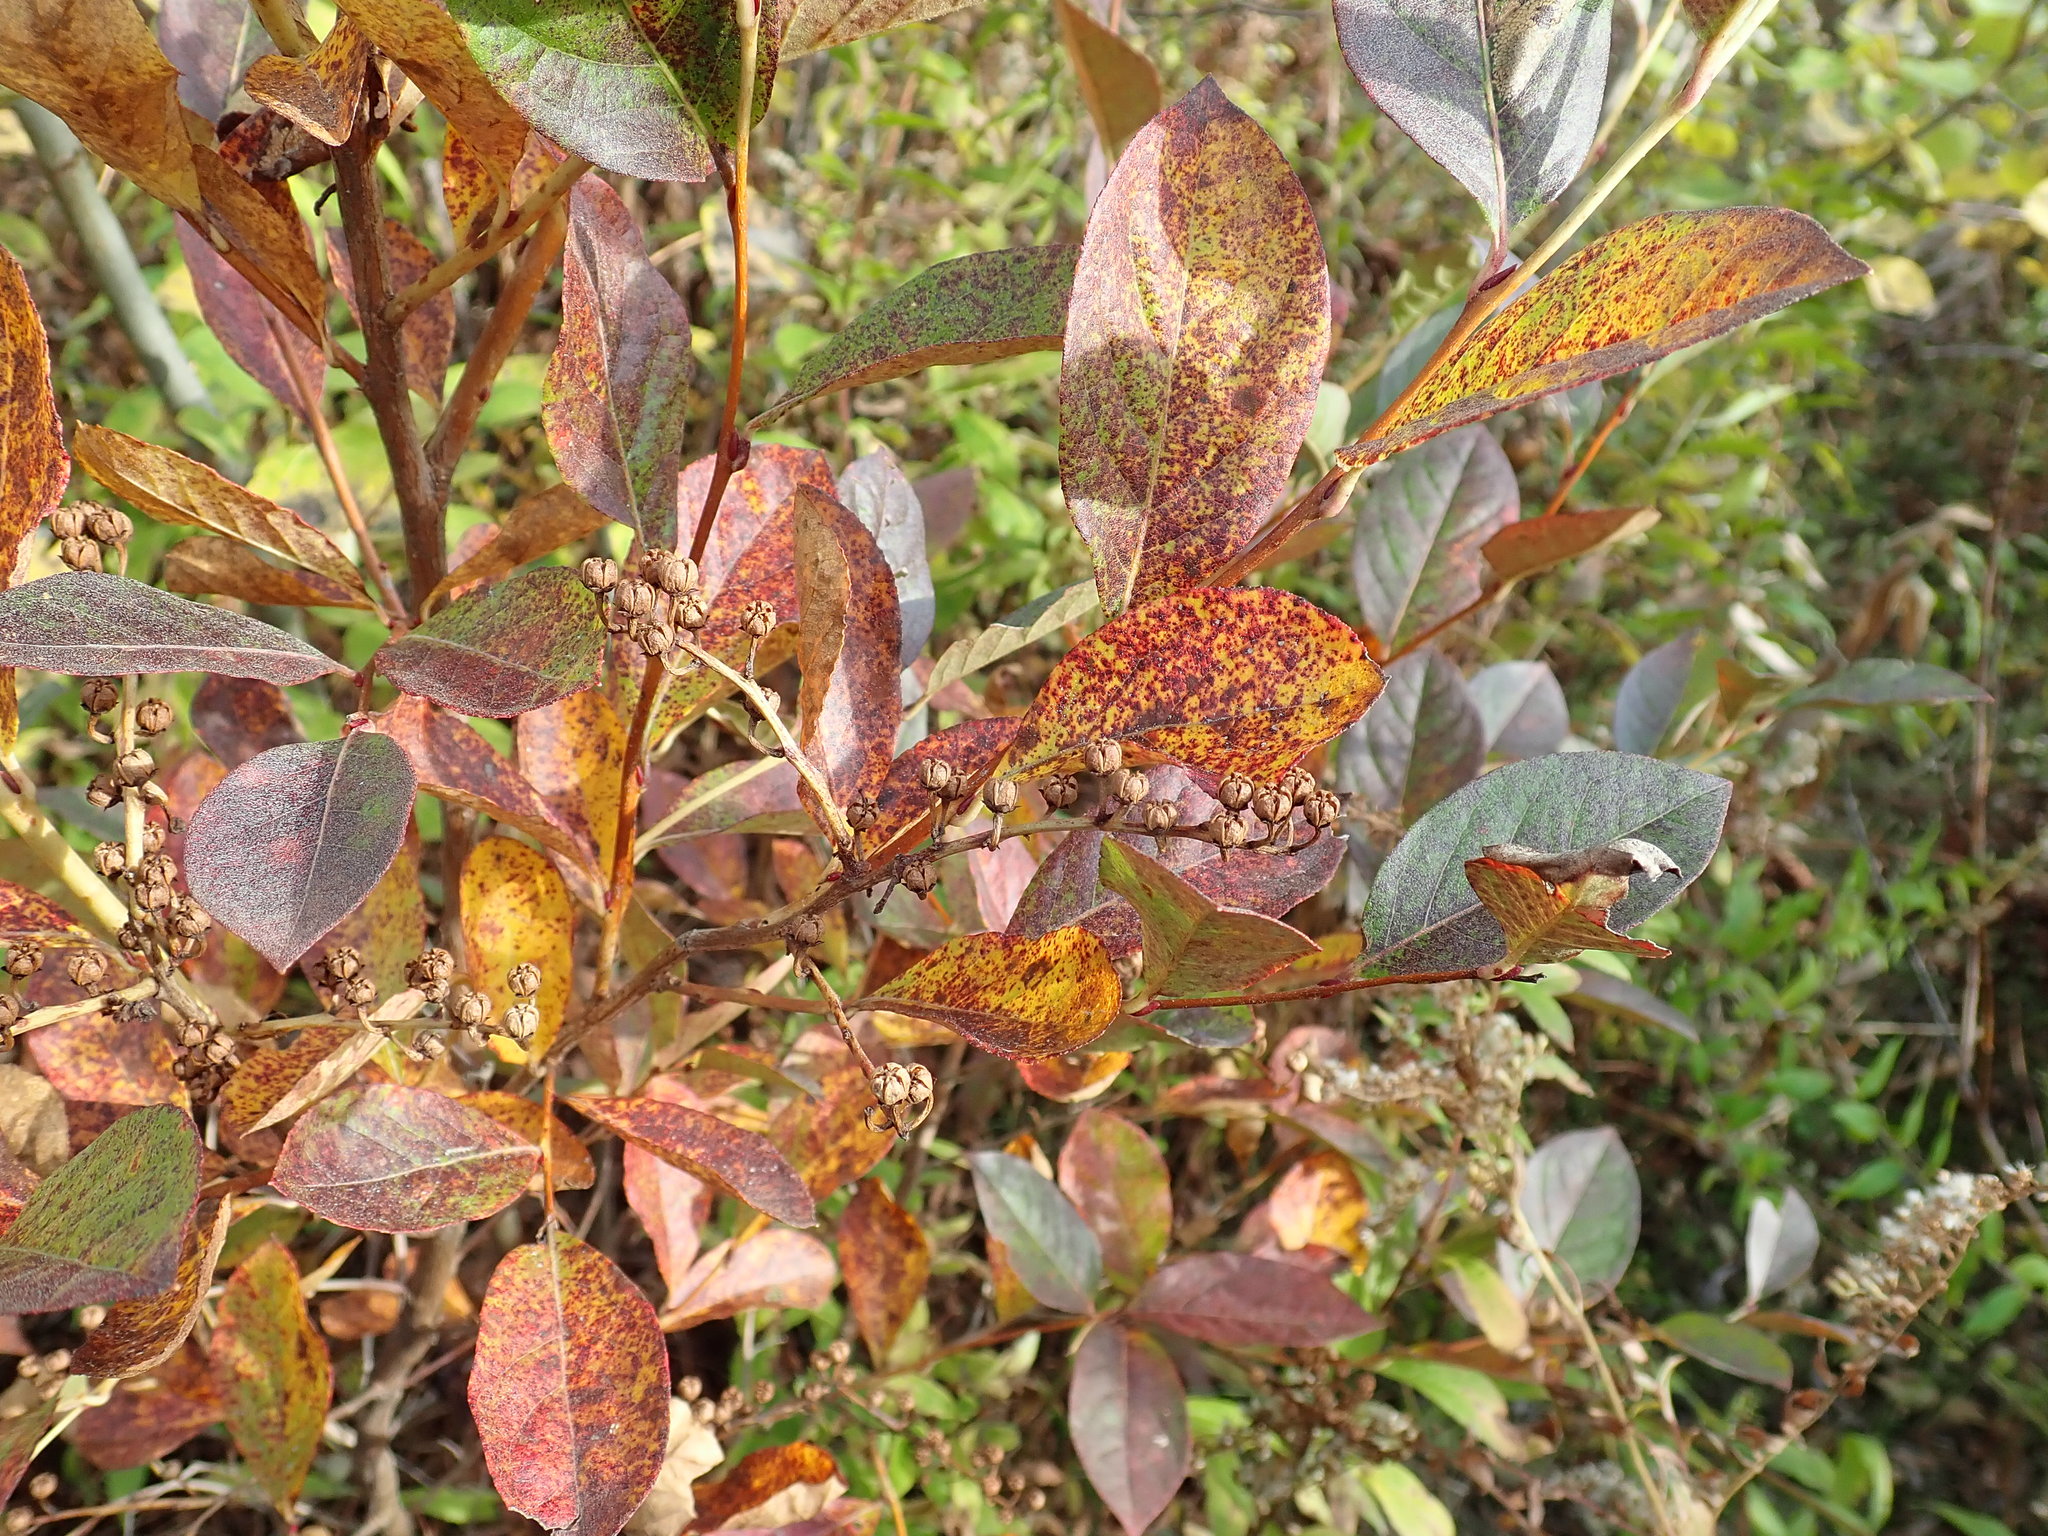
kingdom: Plantae
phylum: Tracheophyta
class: Magnoliopsida
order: Ericales
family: Ericaceae
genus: Lyonia
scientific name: Lyonia ligustrina
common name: Maleberry
